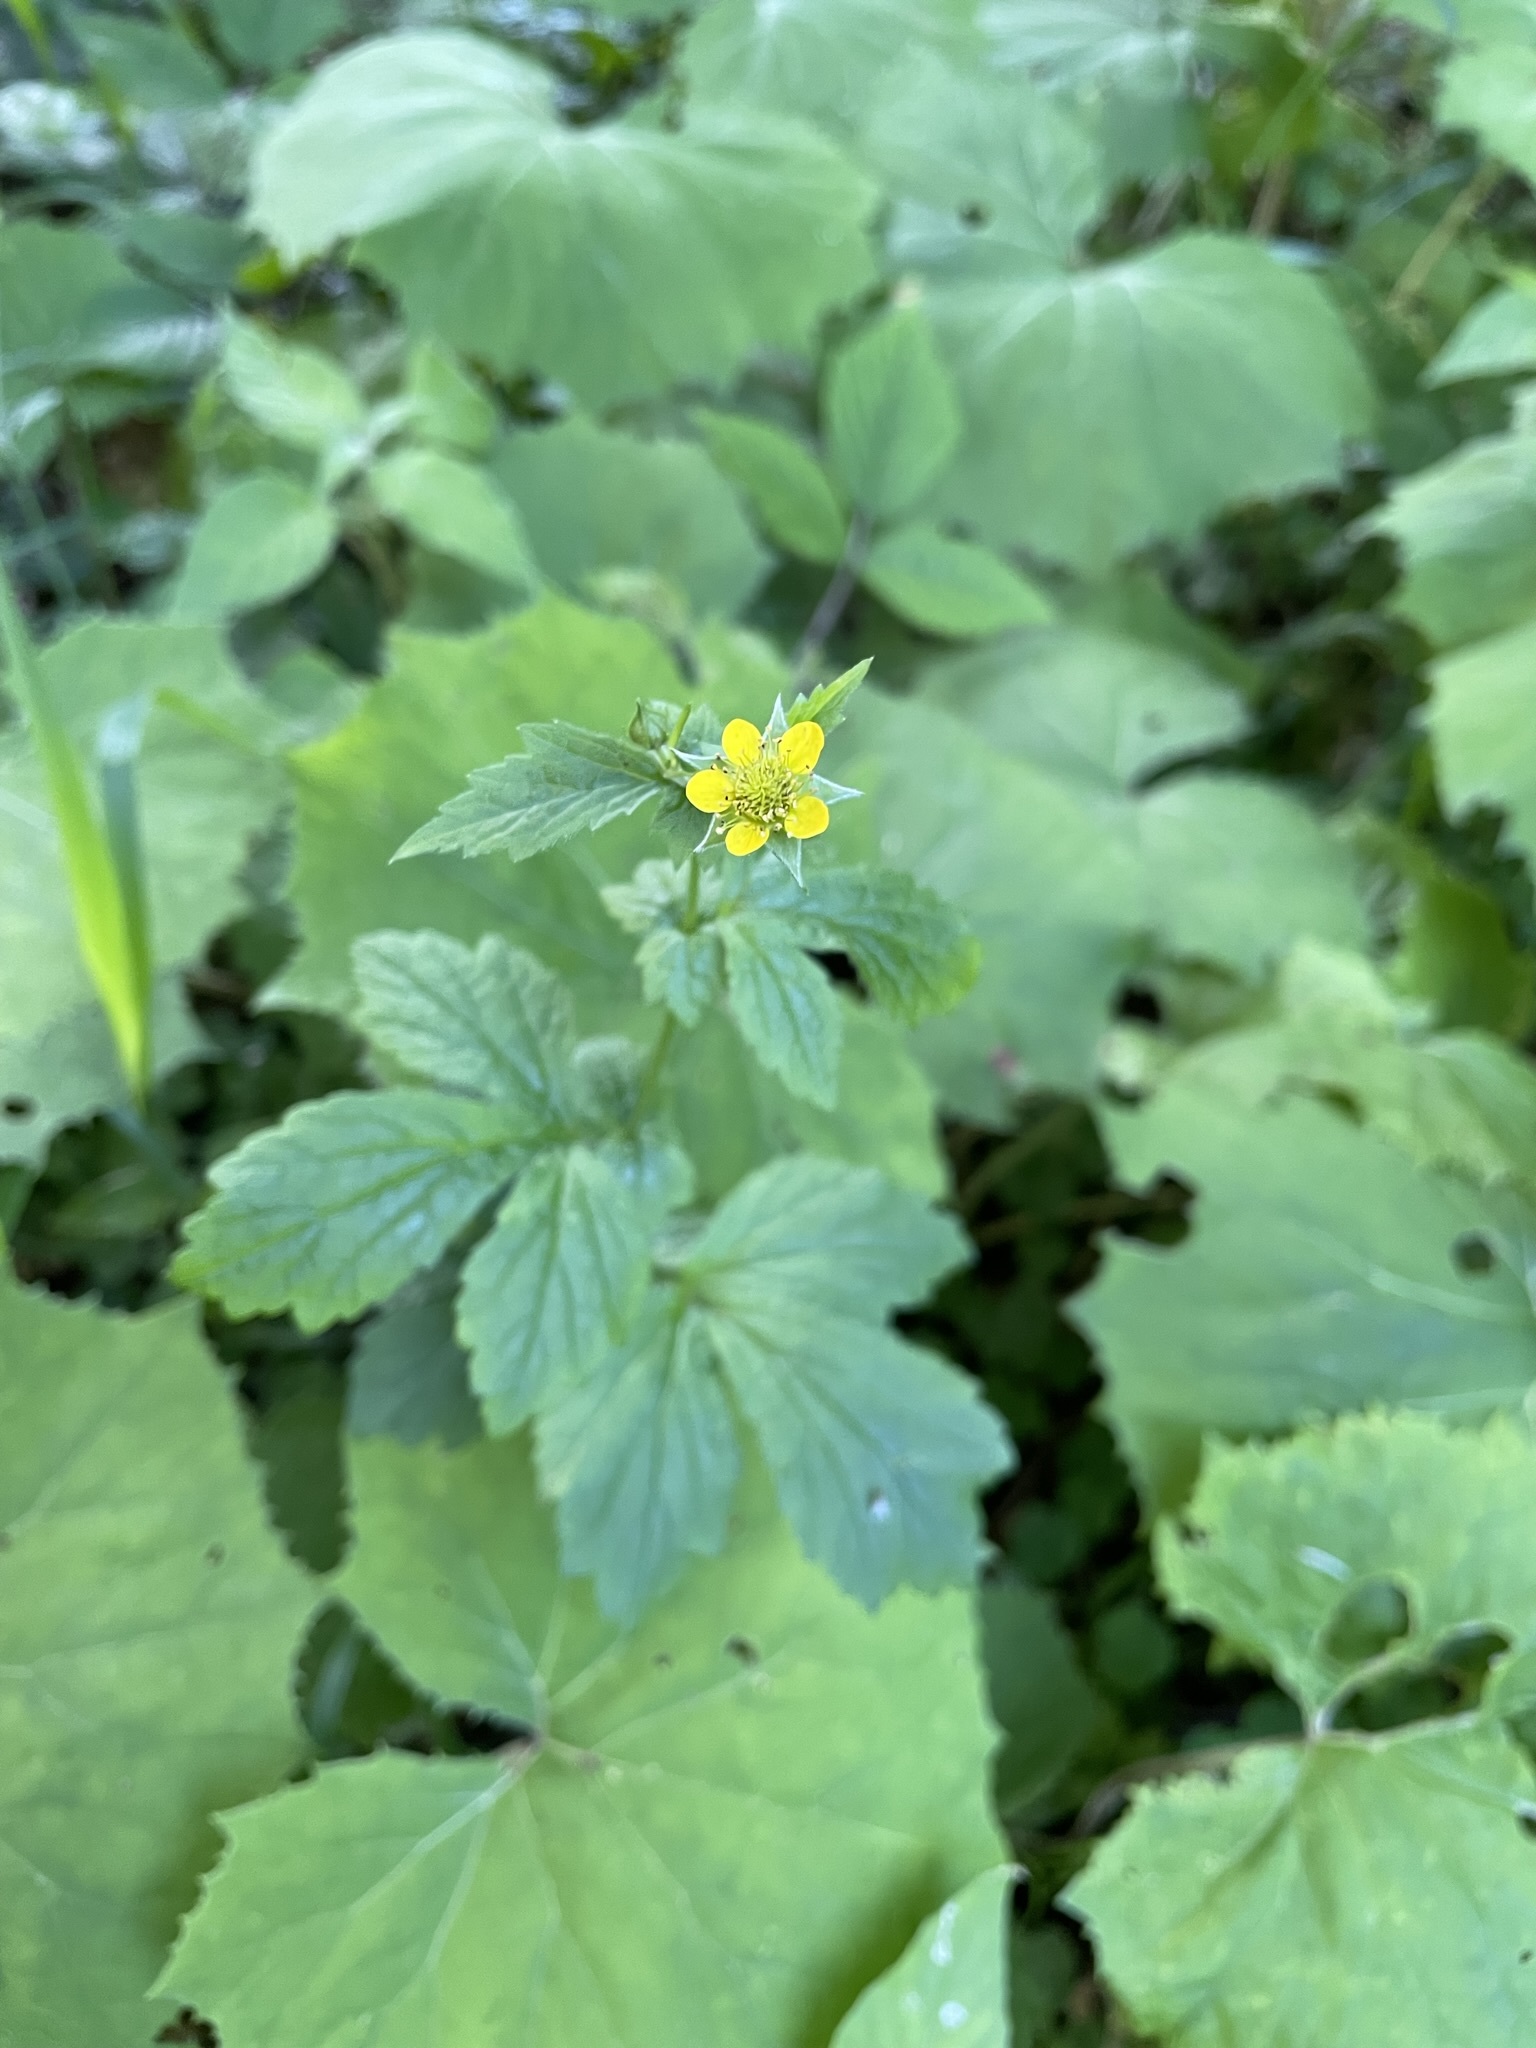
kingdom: Plantae
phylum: Tracheophyta
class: Magnoliopsida
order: Rosales
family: Rosaceae
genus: Geum
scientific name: Geum urbanum
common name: Wood avens
